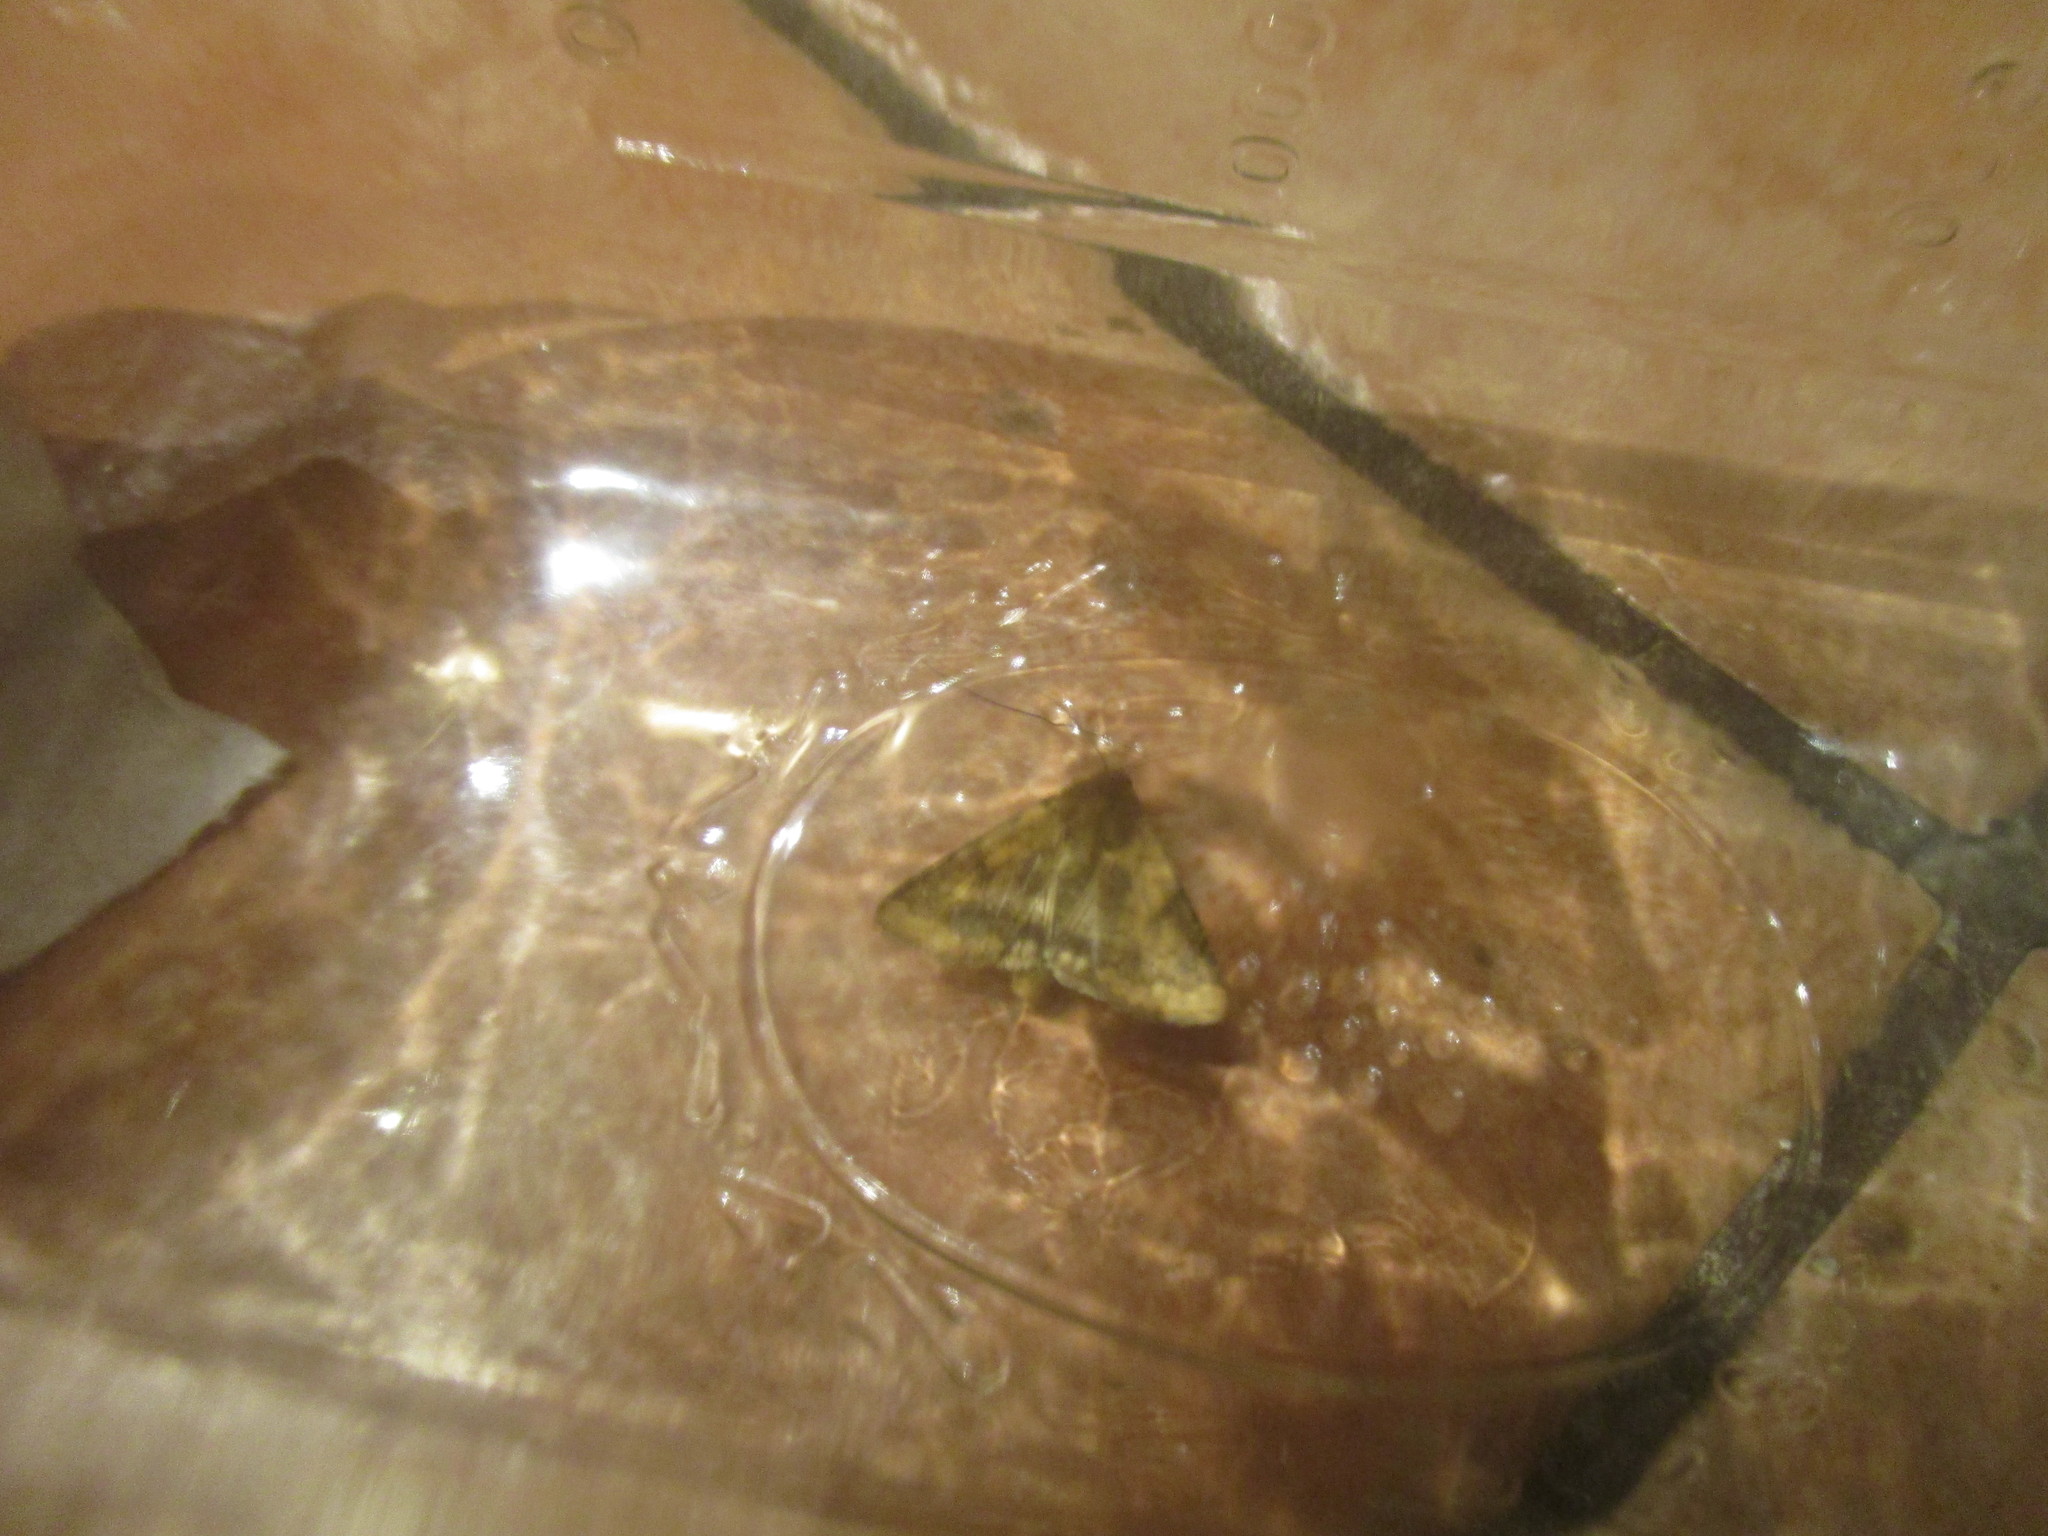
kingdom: Animalia
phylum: Arthropoda
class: Insecta
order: Lepidoptera
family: Noctuidae
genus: Helicoverpa
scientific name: Helicoverpa zea
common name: Bollworm
